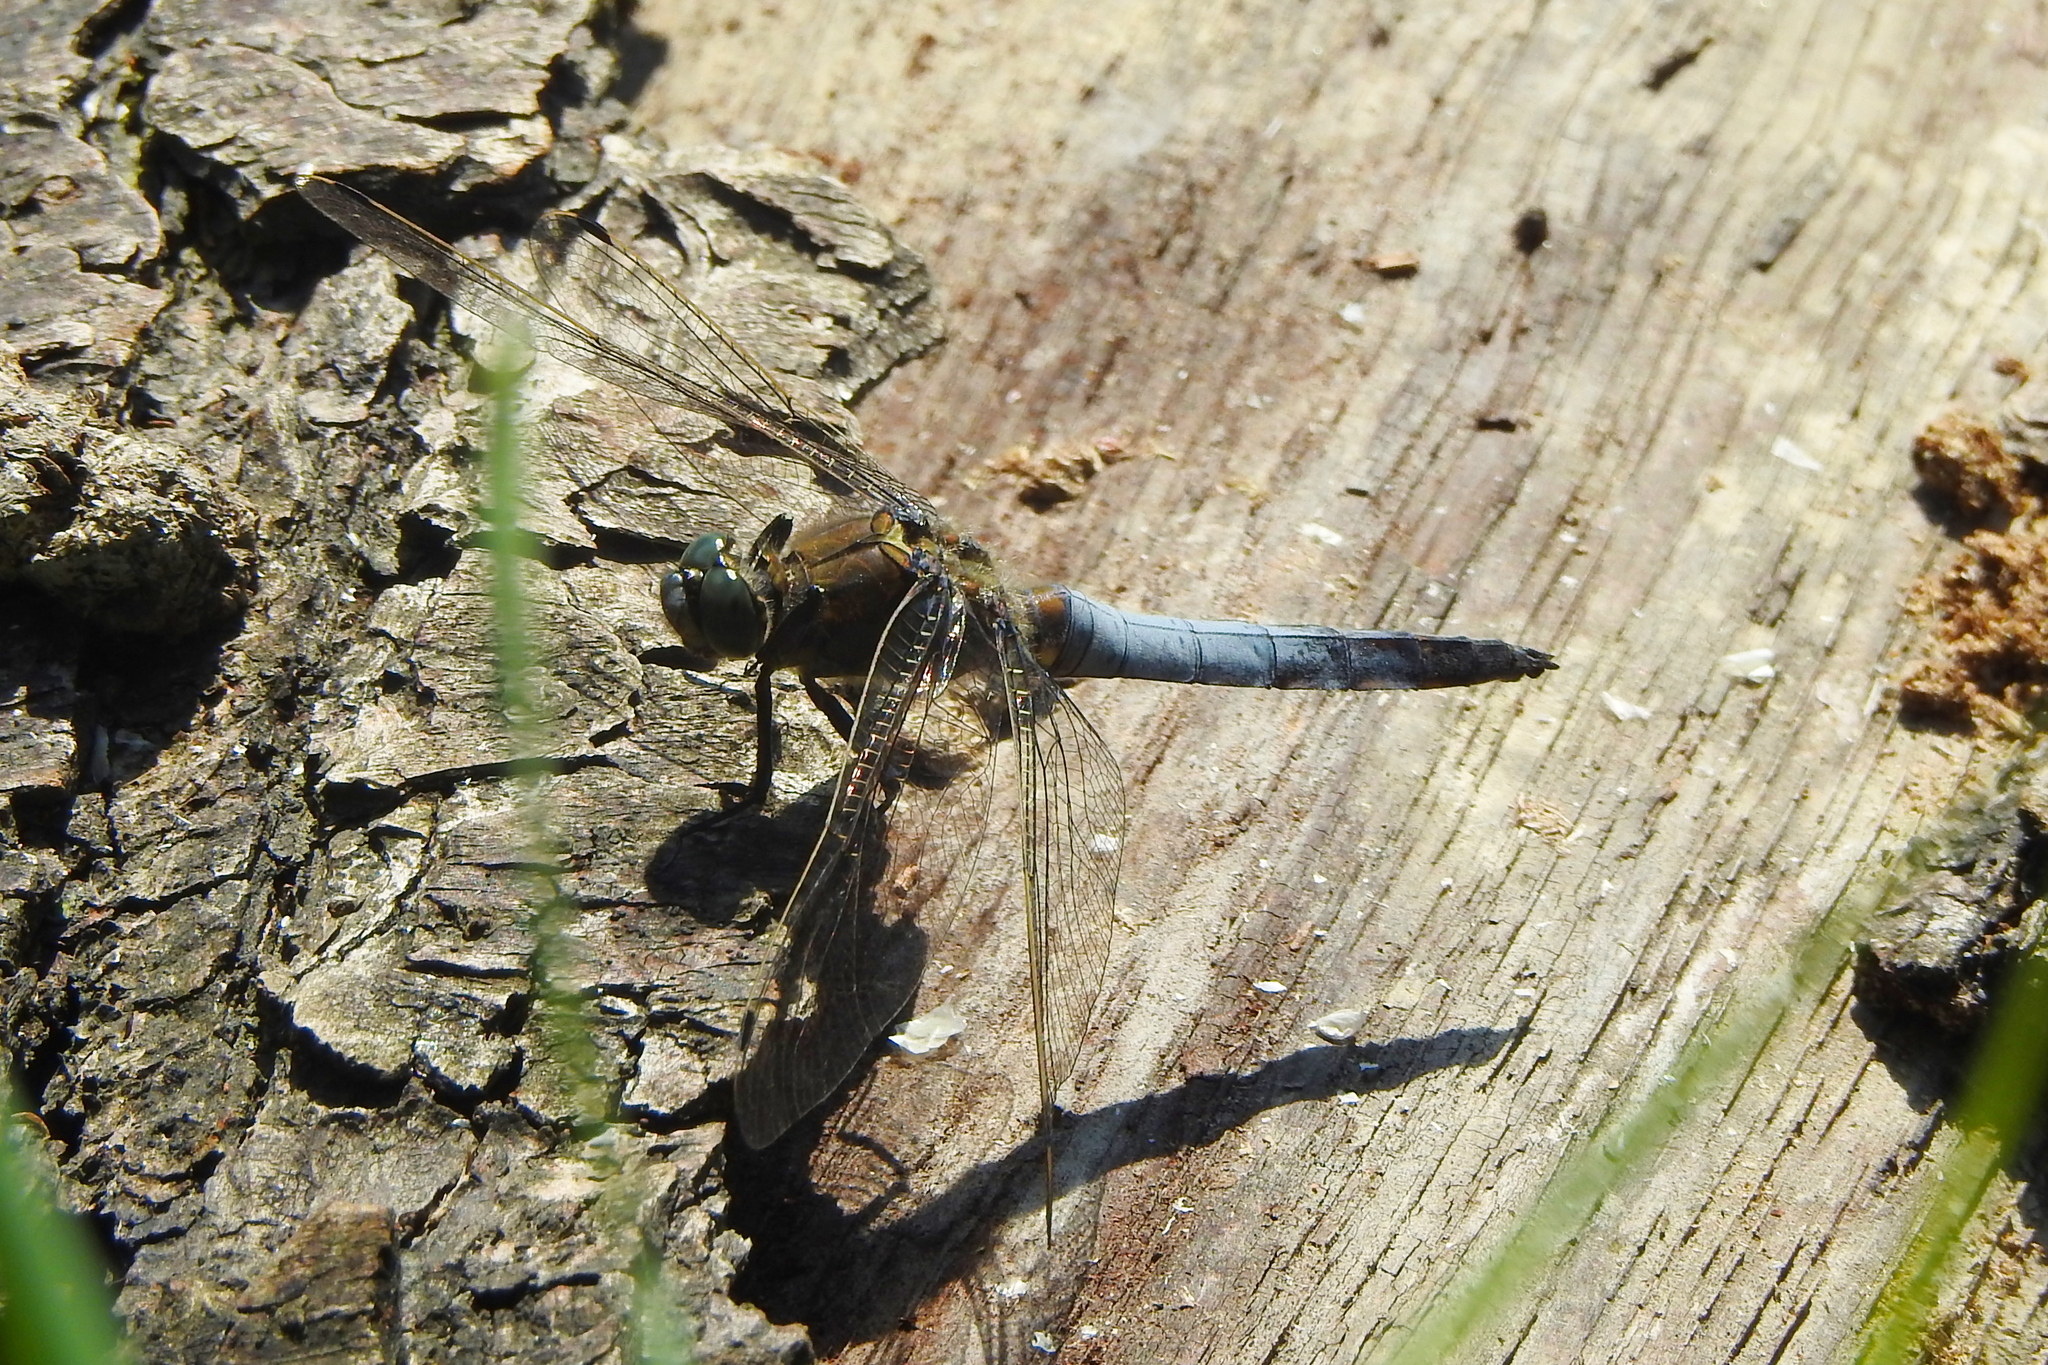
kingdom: Animalia
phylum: Arthropoda
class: Insecta
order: Odonata
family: Libellulidae
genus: Orthetrum
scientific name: Orthetrum cancellatum
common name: Black-tailed skimmer
